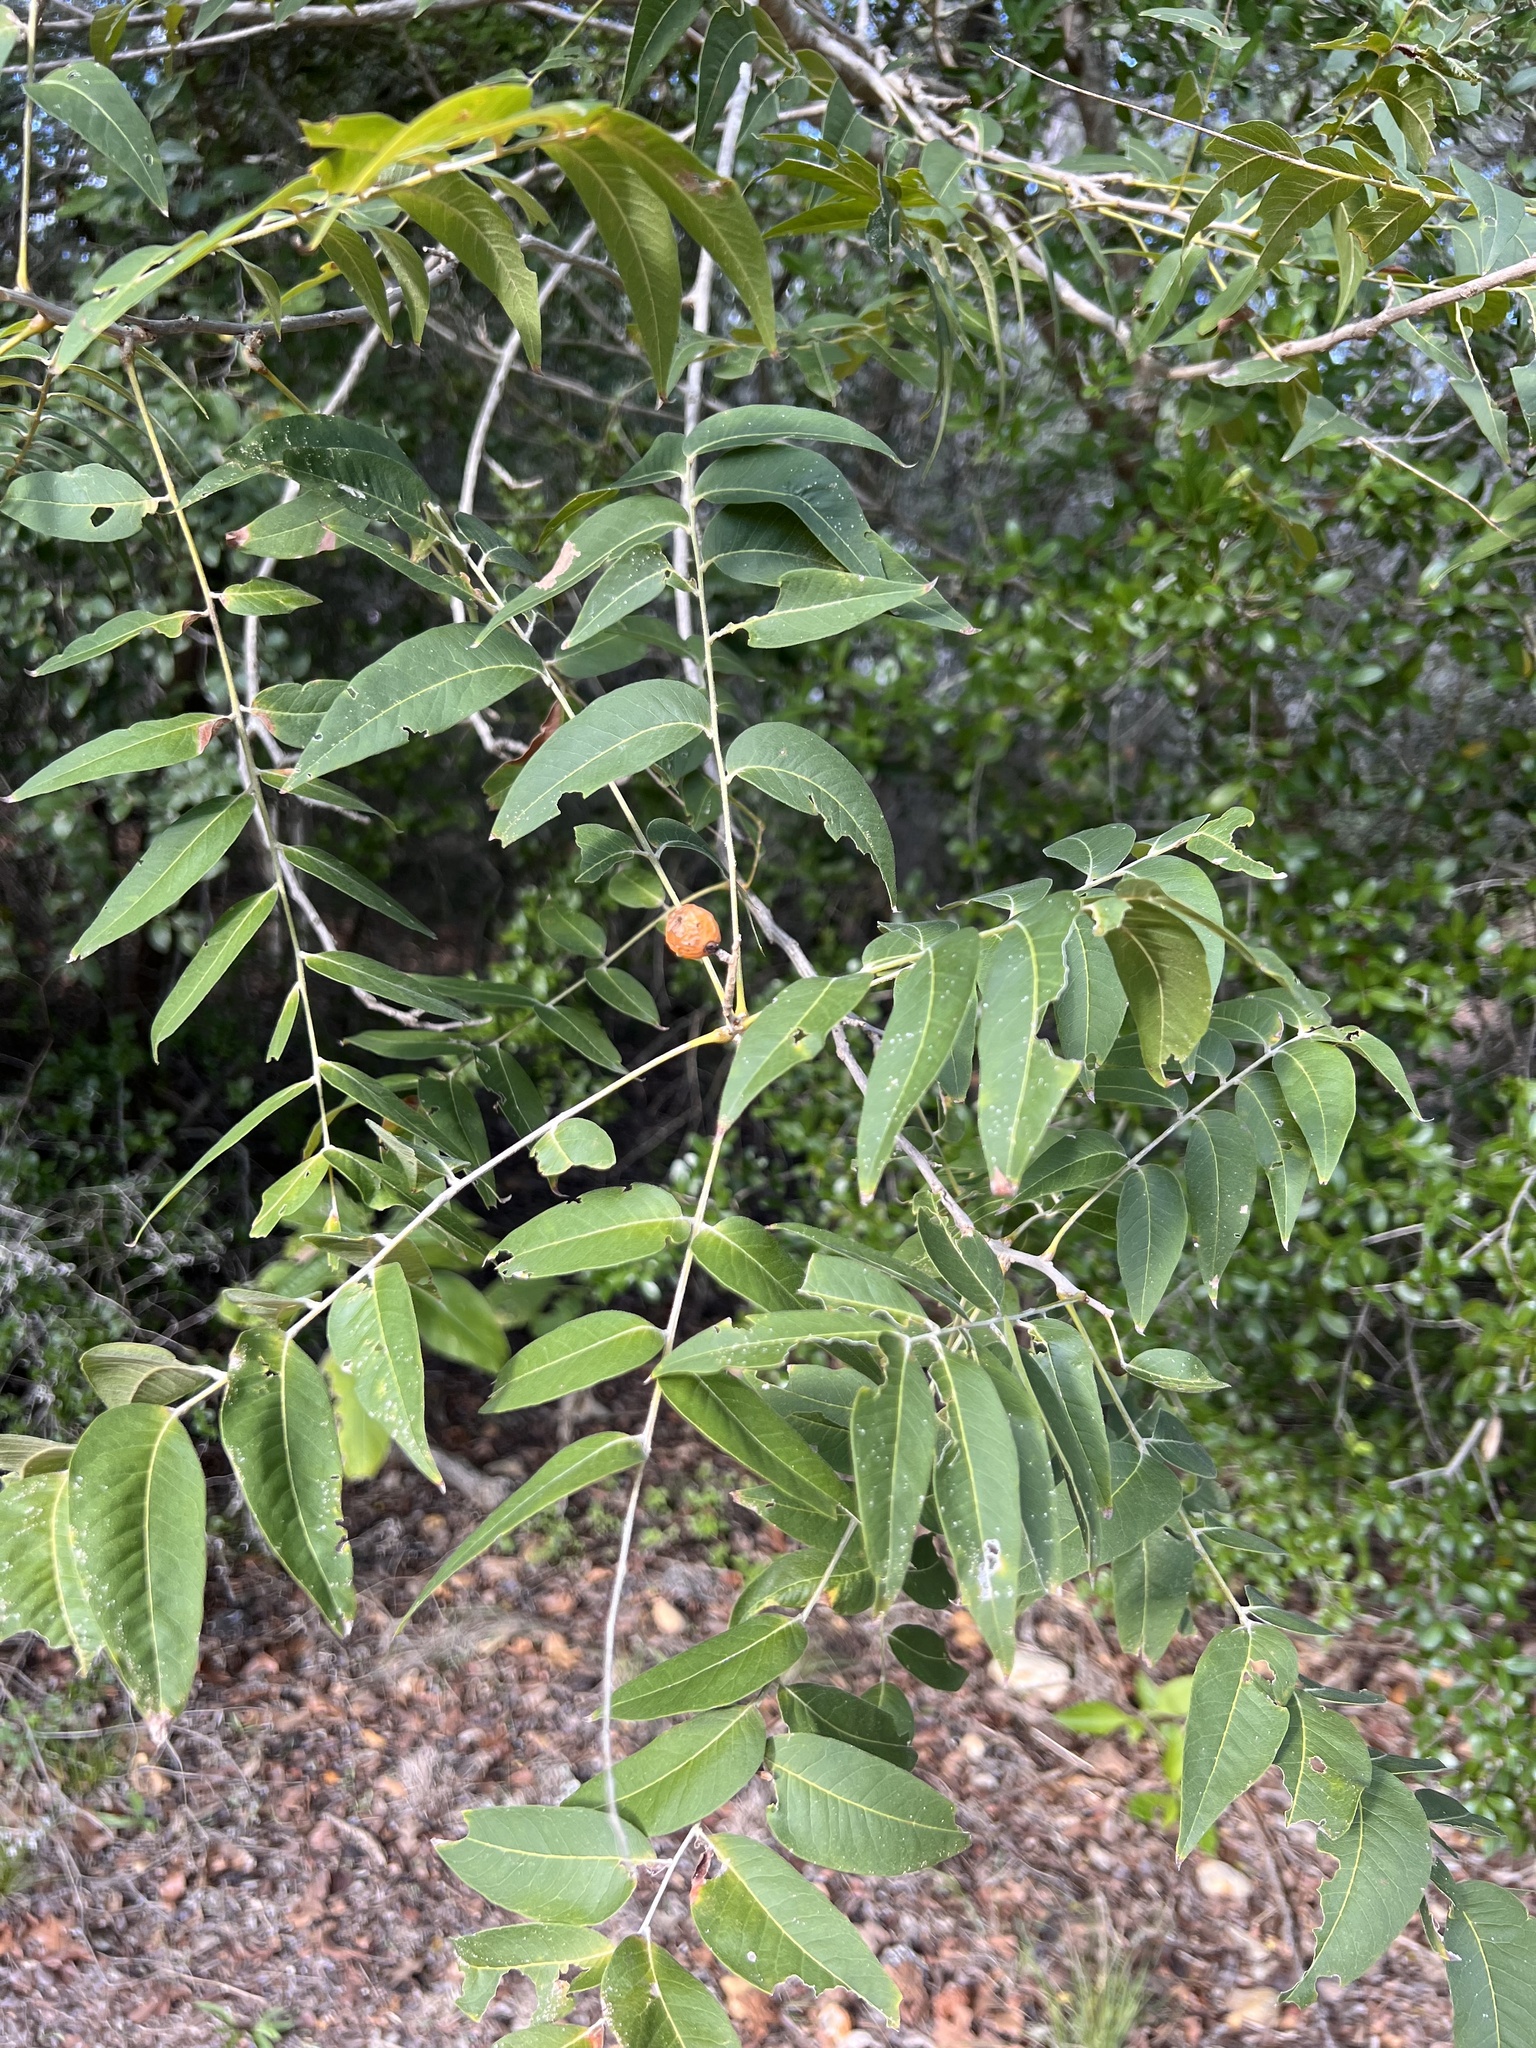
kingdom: Plantae
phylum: Tracheophyta
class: Magnoliopsida
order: Sapindales
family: Sapindaceae
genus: Sapindus
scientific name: Sapindus drummondii
